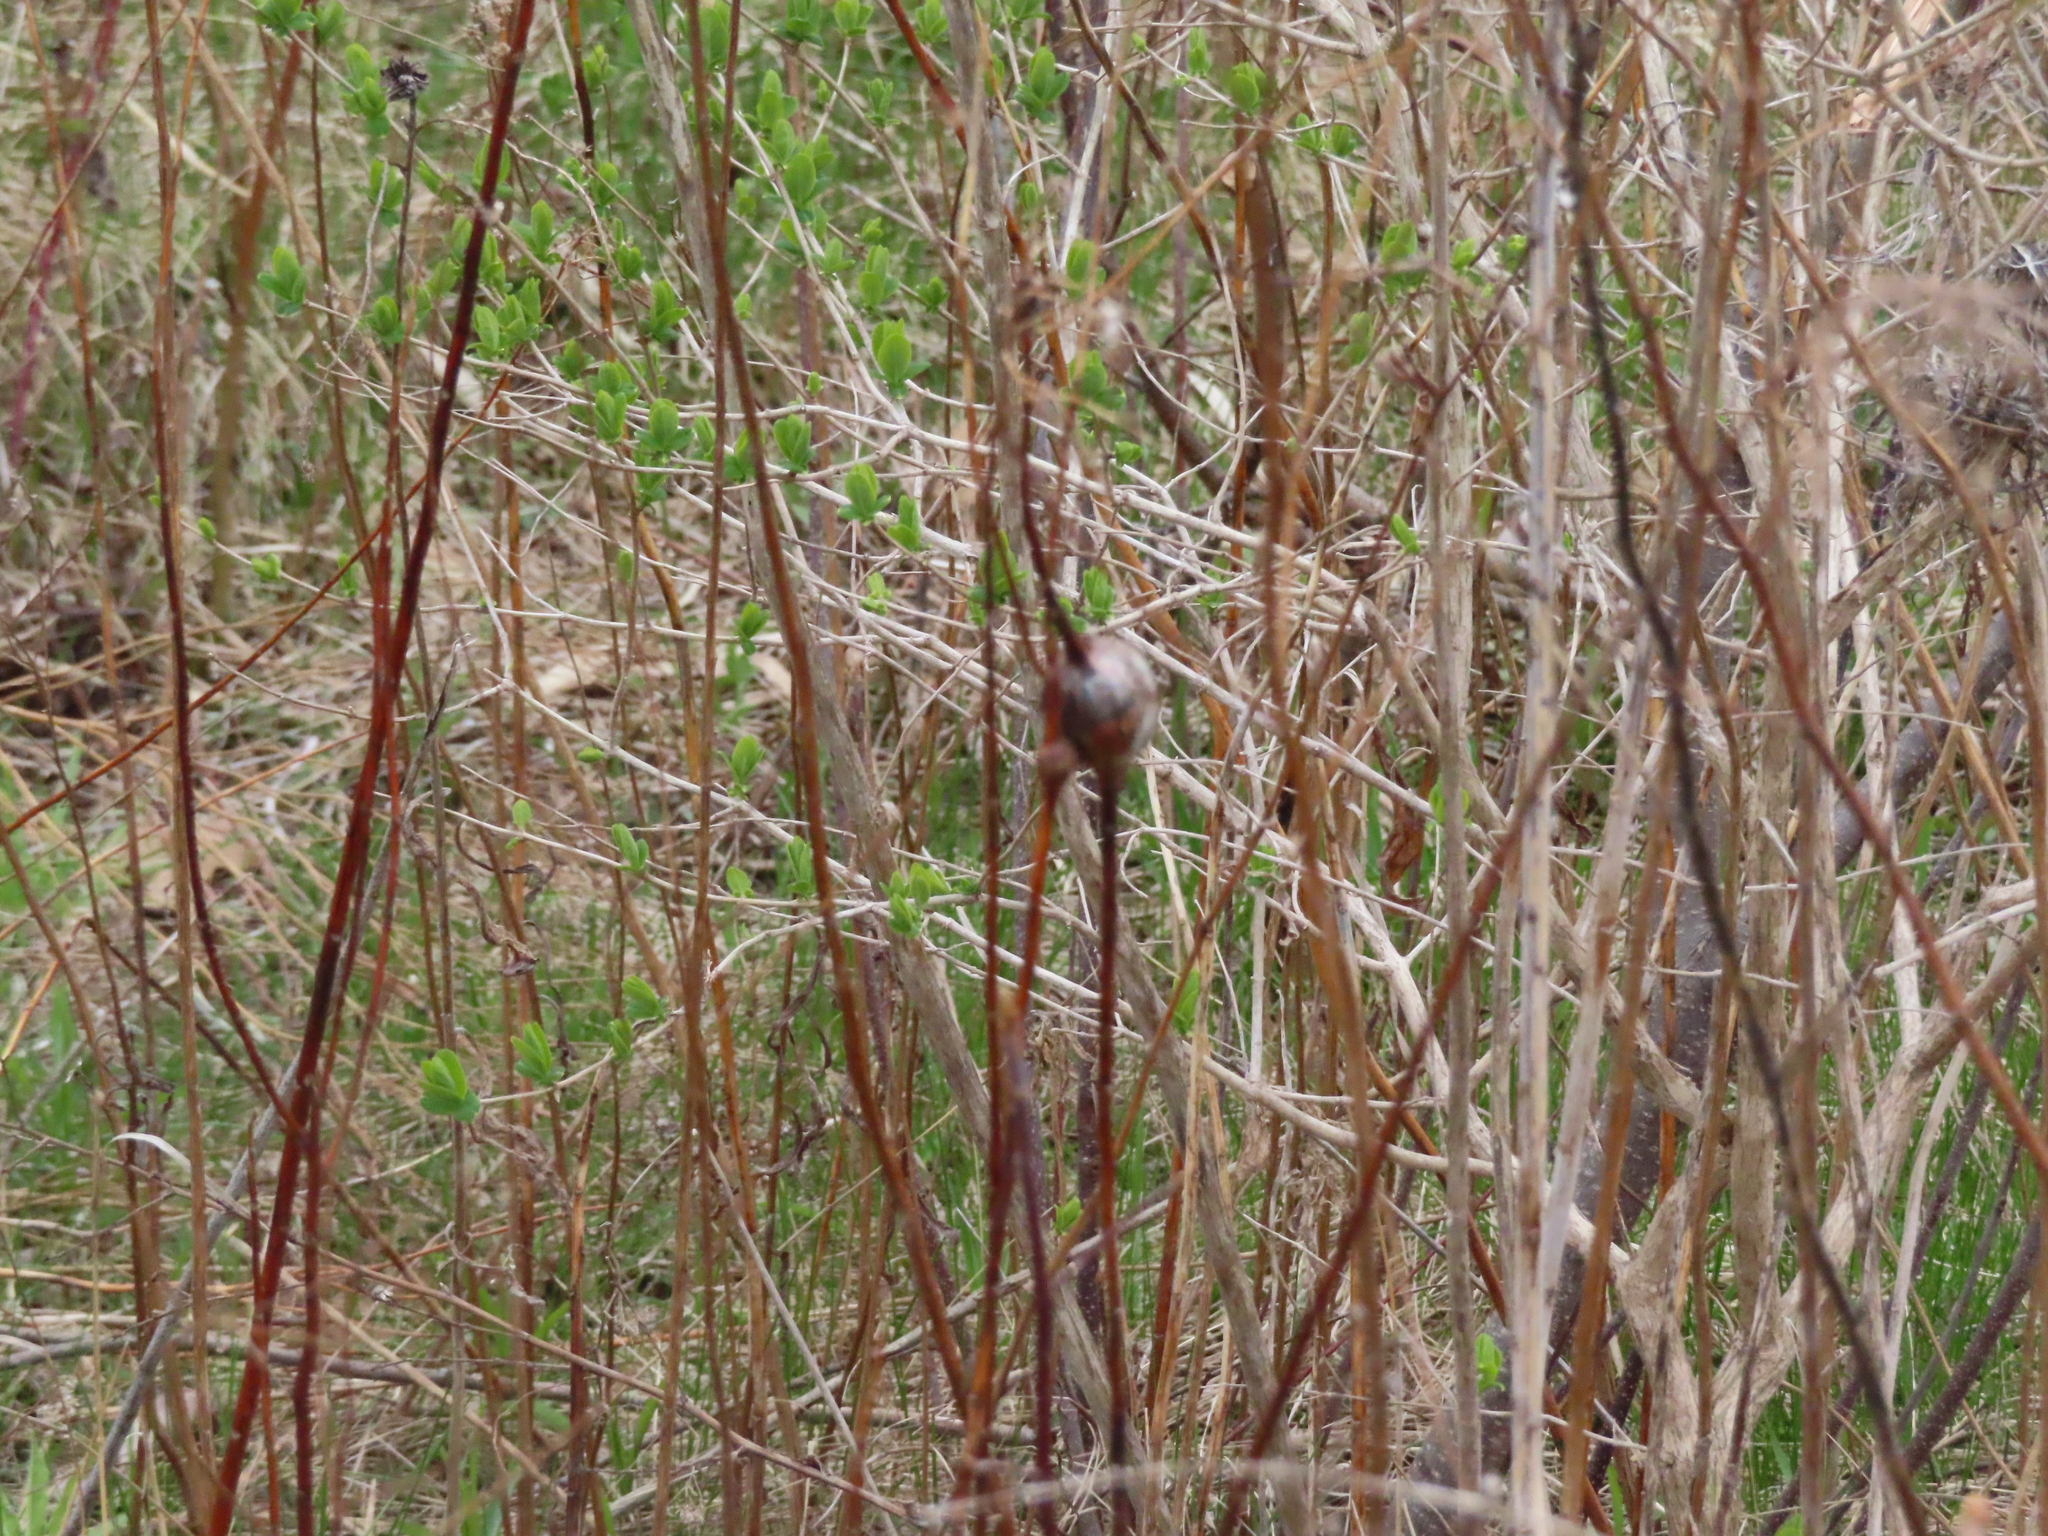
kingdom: Animalia
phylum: Arthropoda
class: Insecta
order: Diptera
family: Tephritidae
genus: Eurosta
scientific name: Eurosta solidaginis
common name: Goldenrod gall fly
